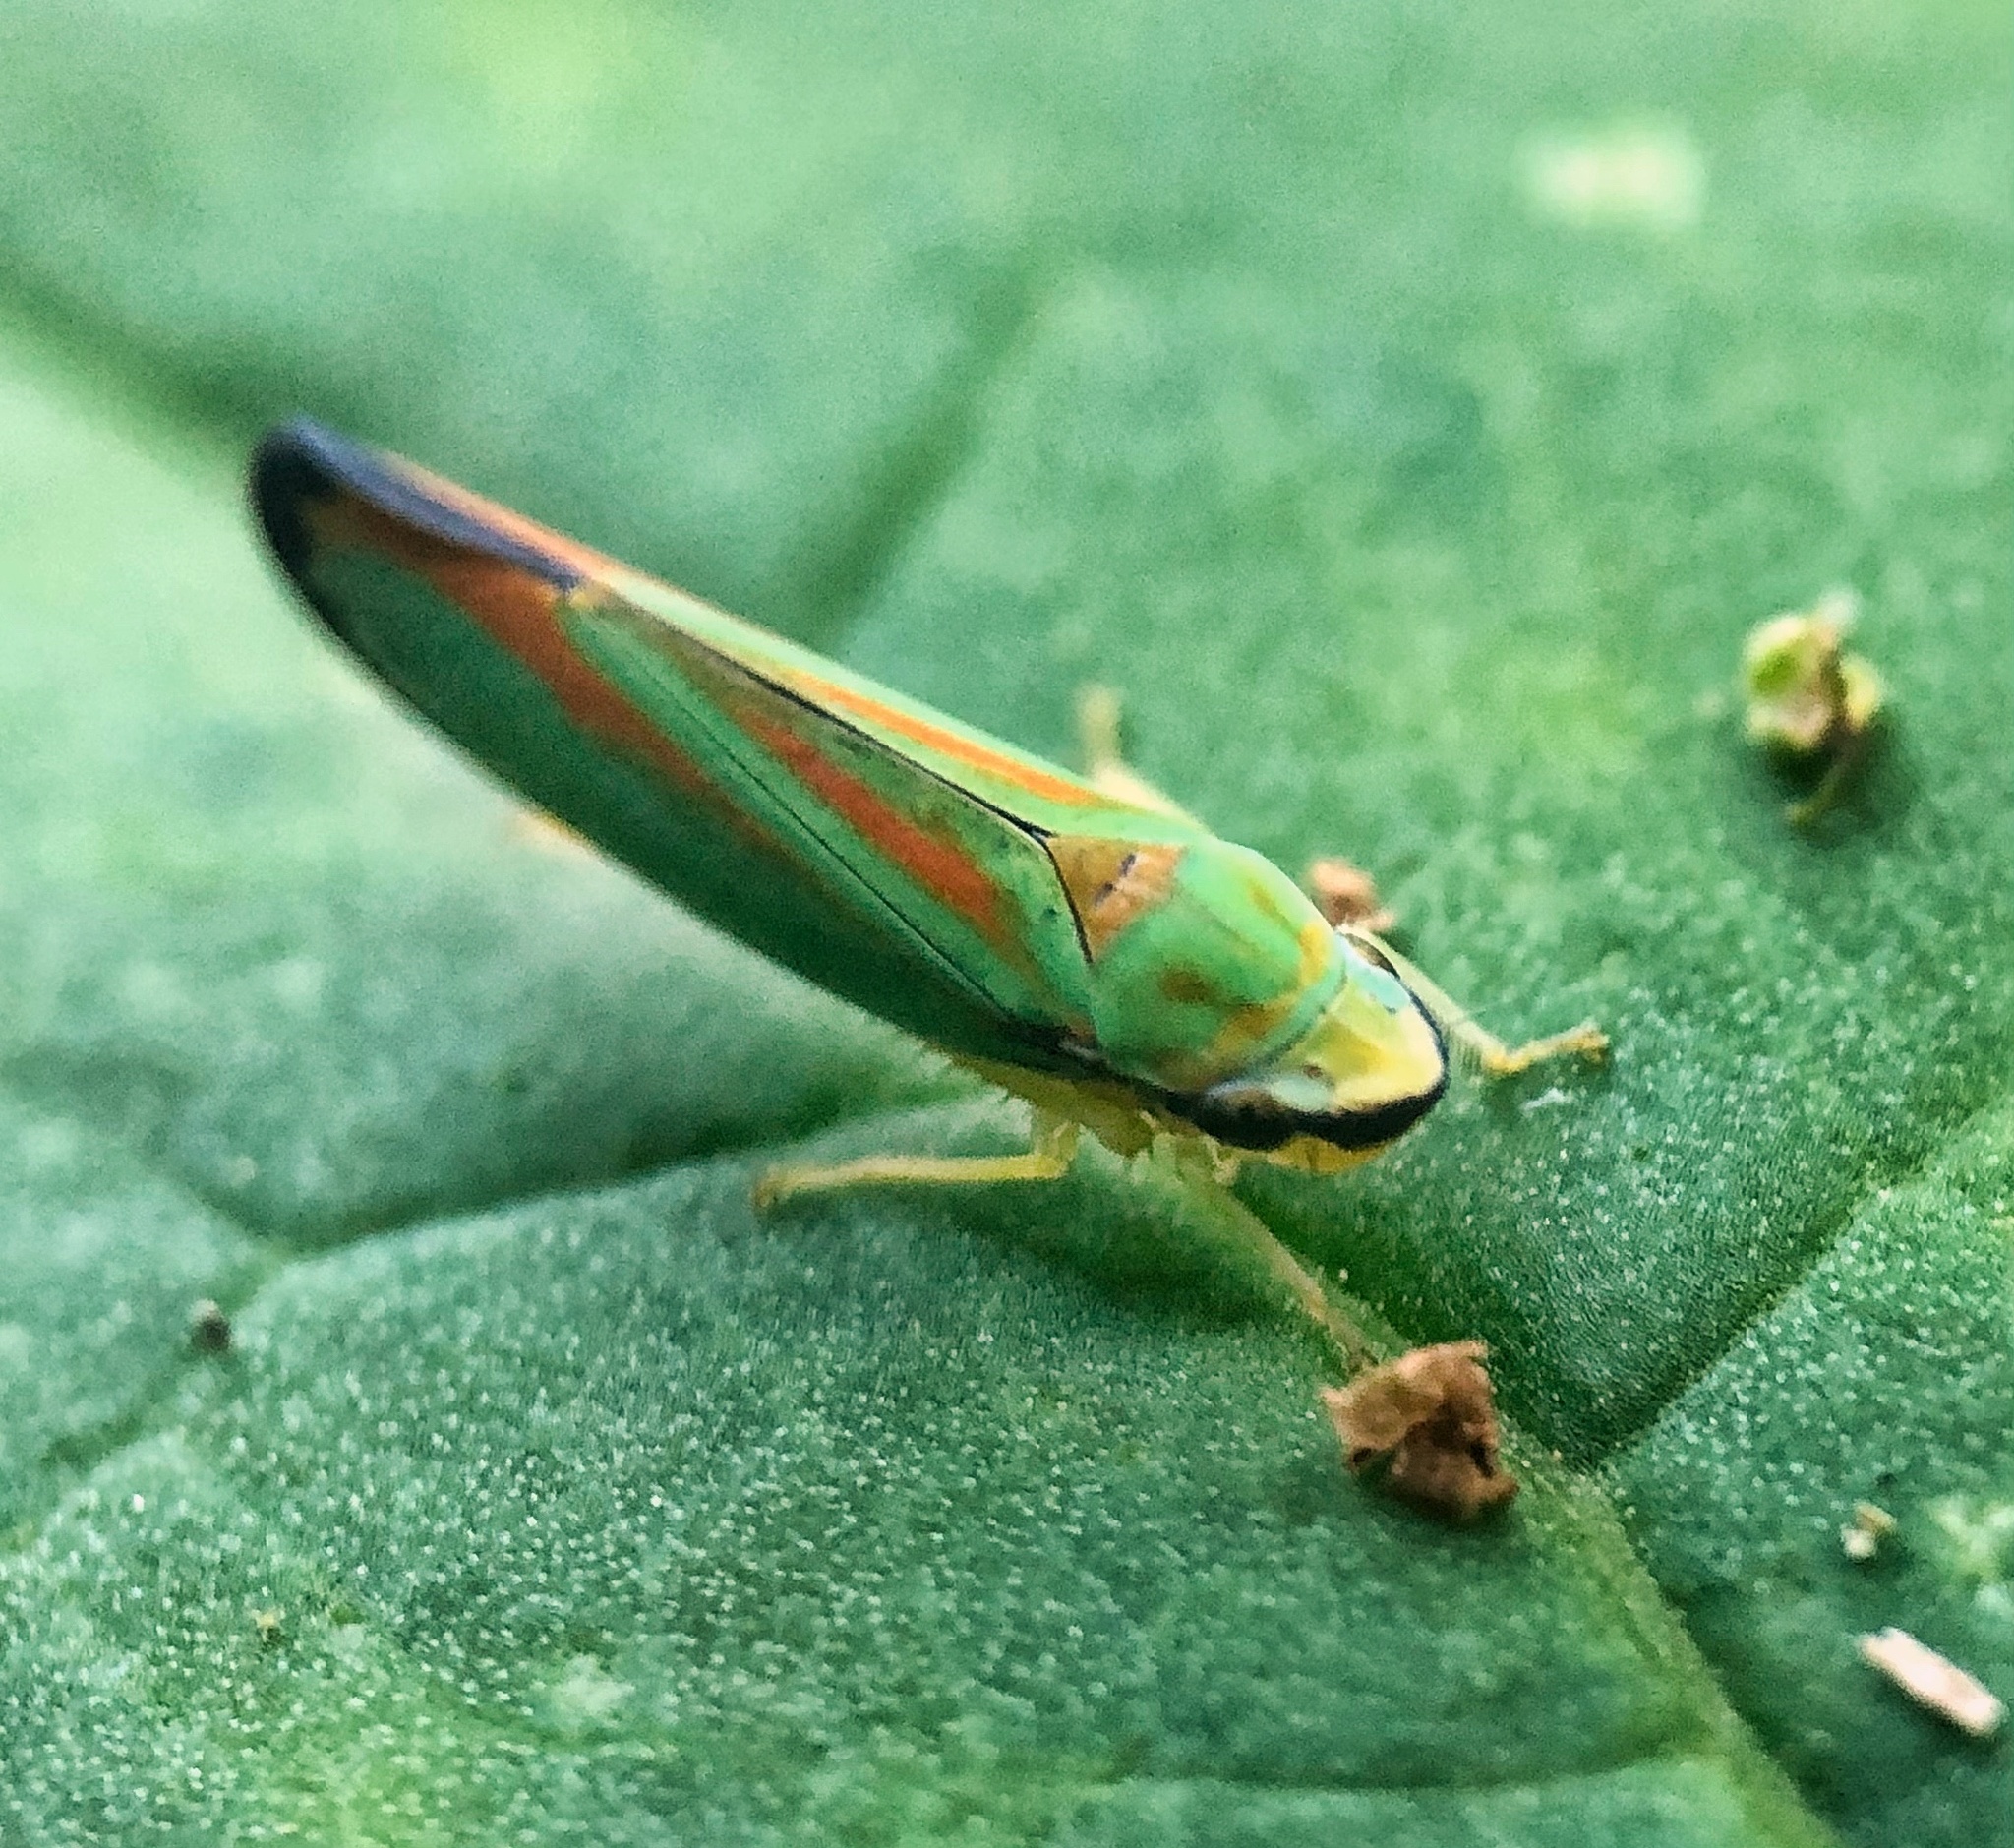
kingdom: Animalia
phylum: Arthropoda
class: Insecta
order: Hemiptera
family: Cicadellidae
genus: Graphocephala
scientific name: Graphocephala fennahi
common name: Rhododendron leafhopper
